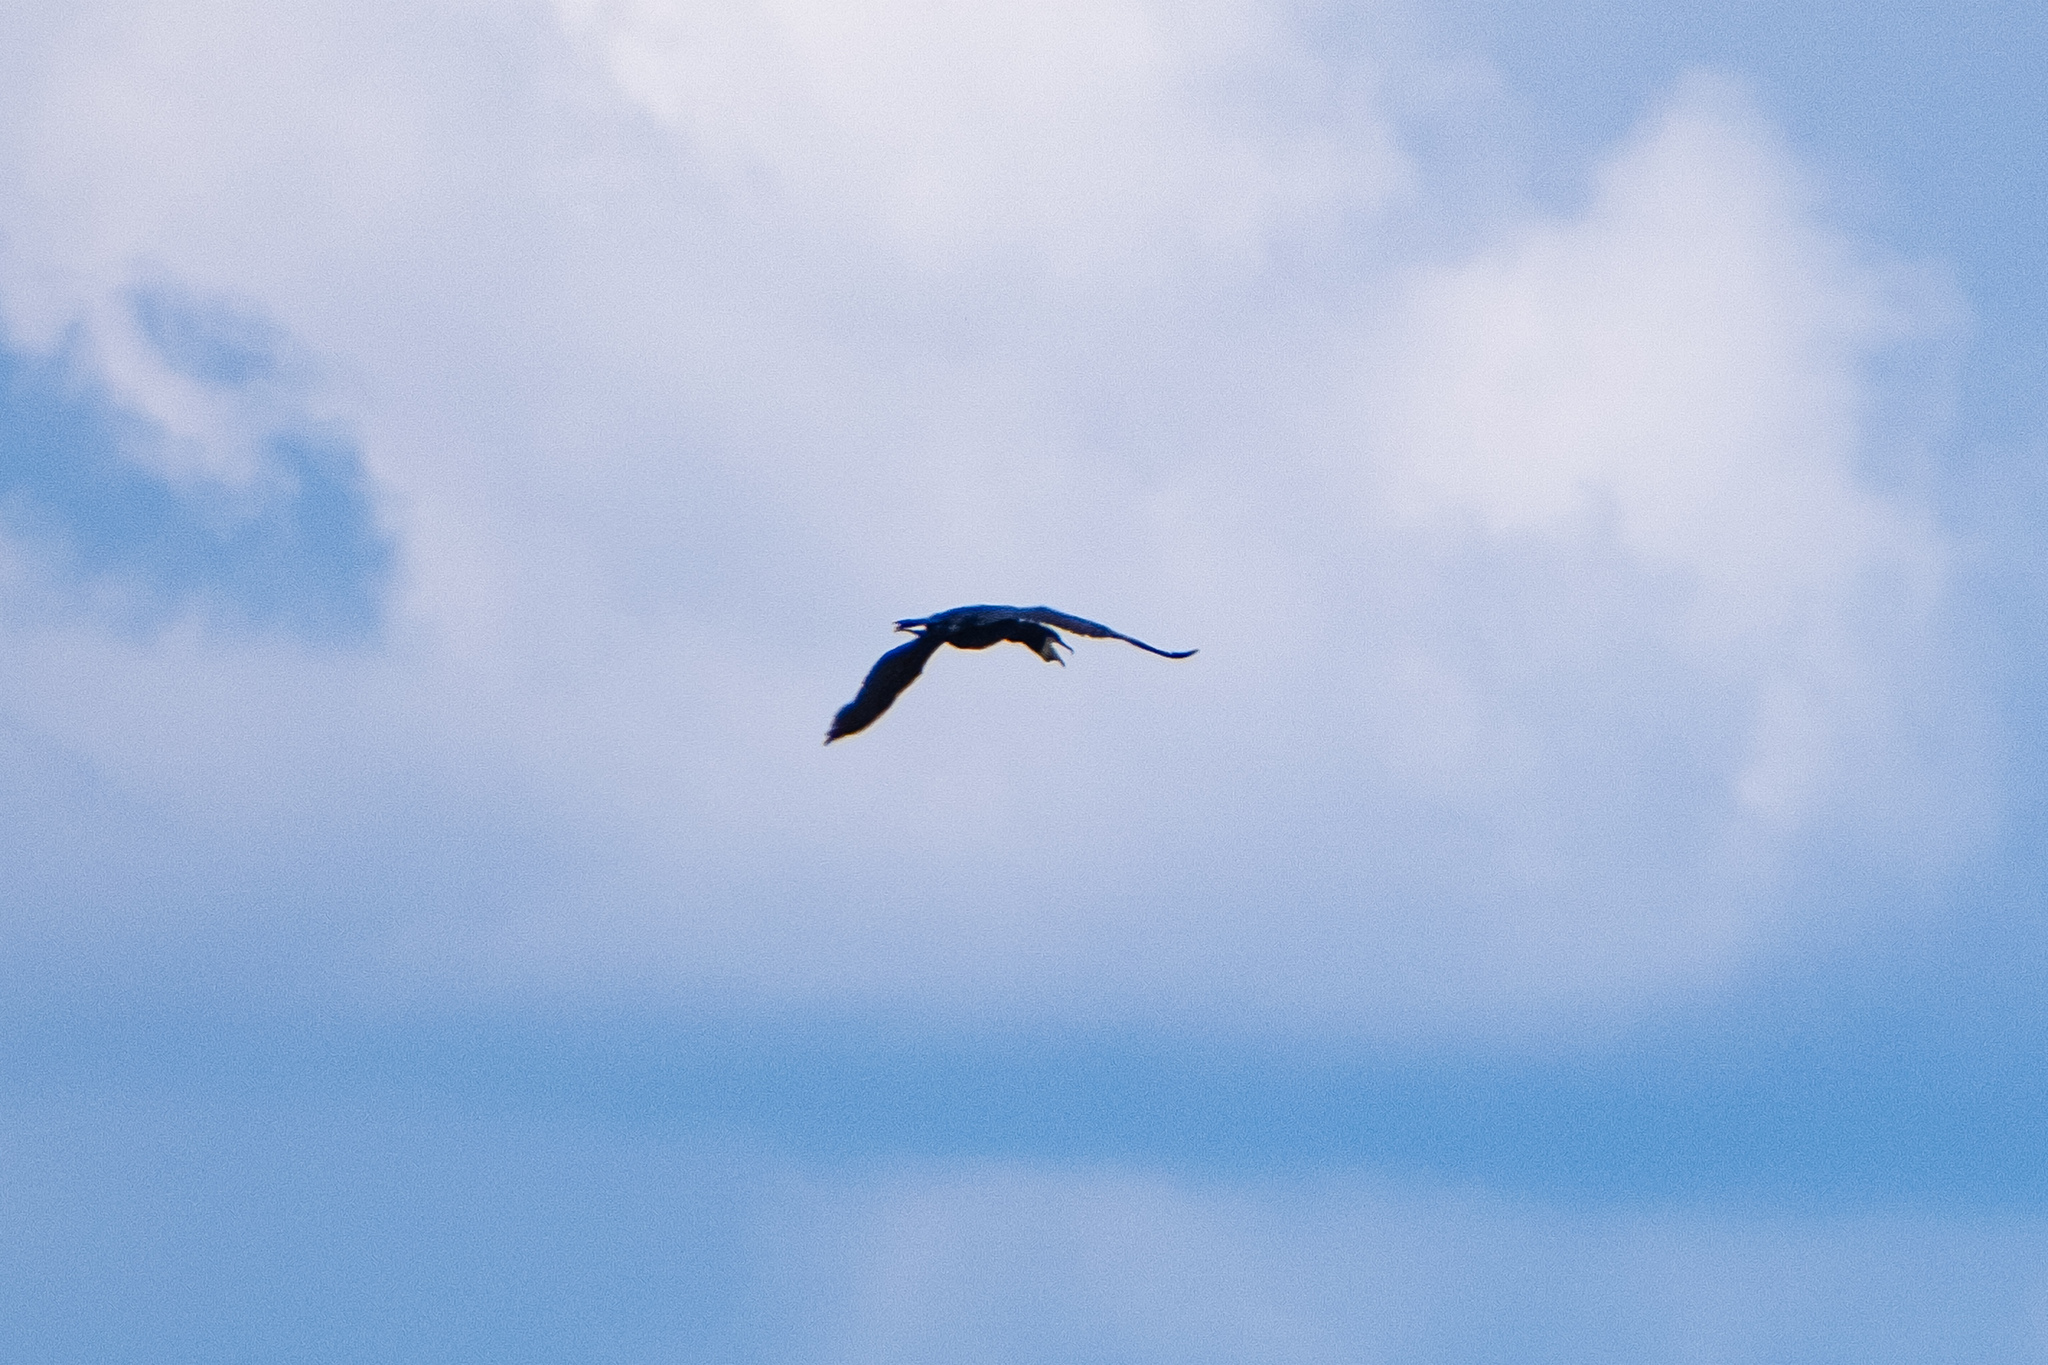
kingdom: Animalia
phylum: Chordata
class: Aves
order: Suliformes
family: Phalacrocoracidae
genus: Phalacrocorax
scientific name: Phalacrocorax carbo
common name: Great cormorant
